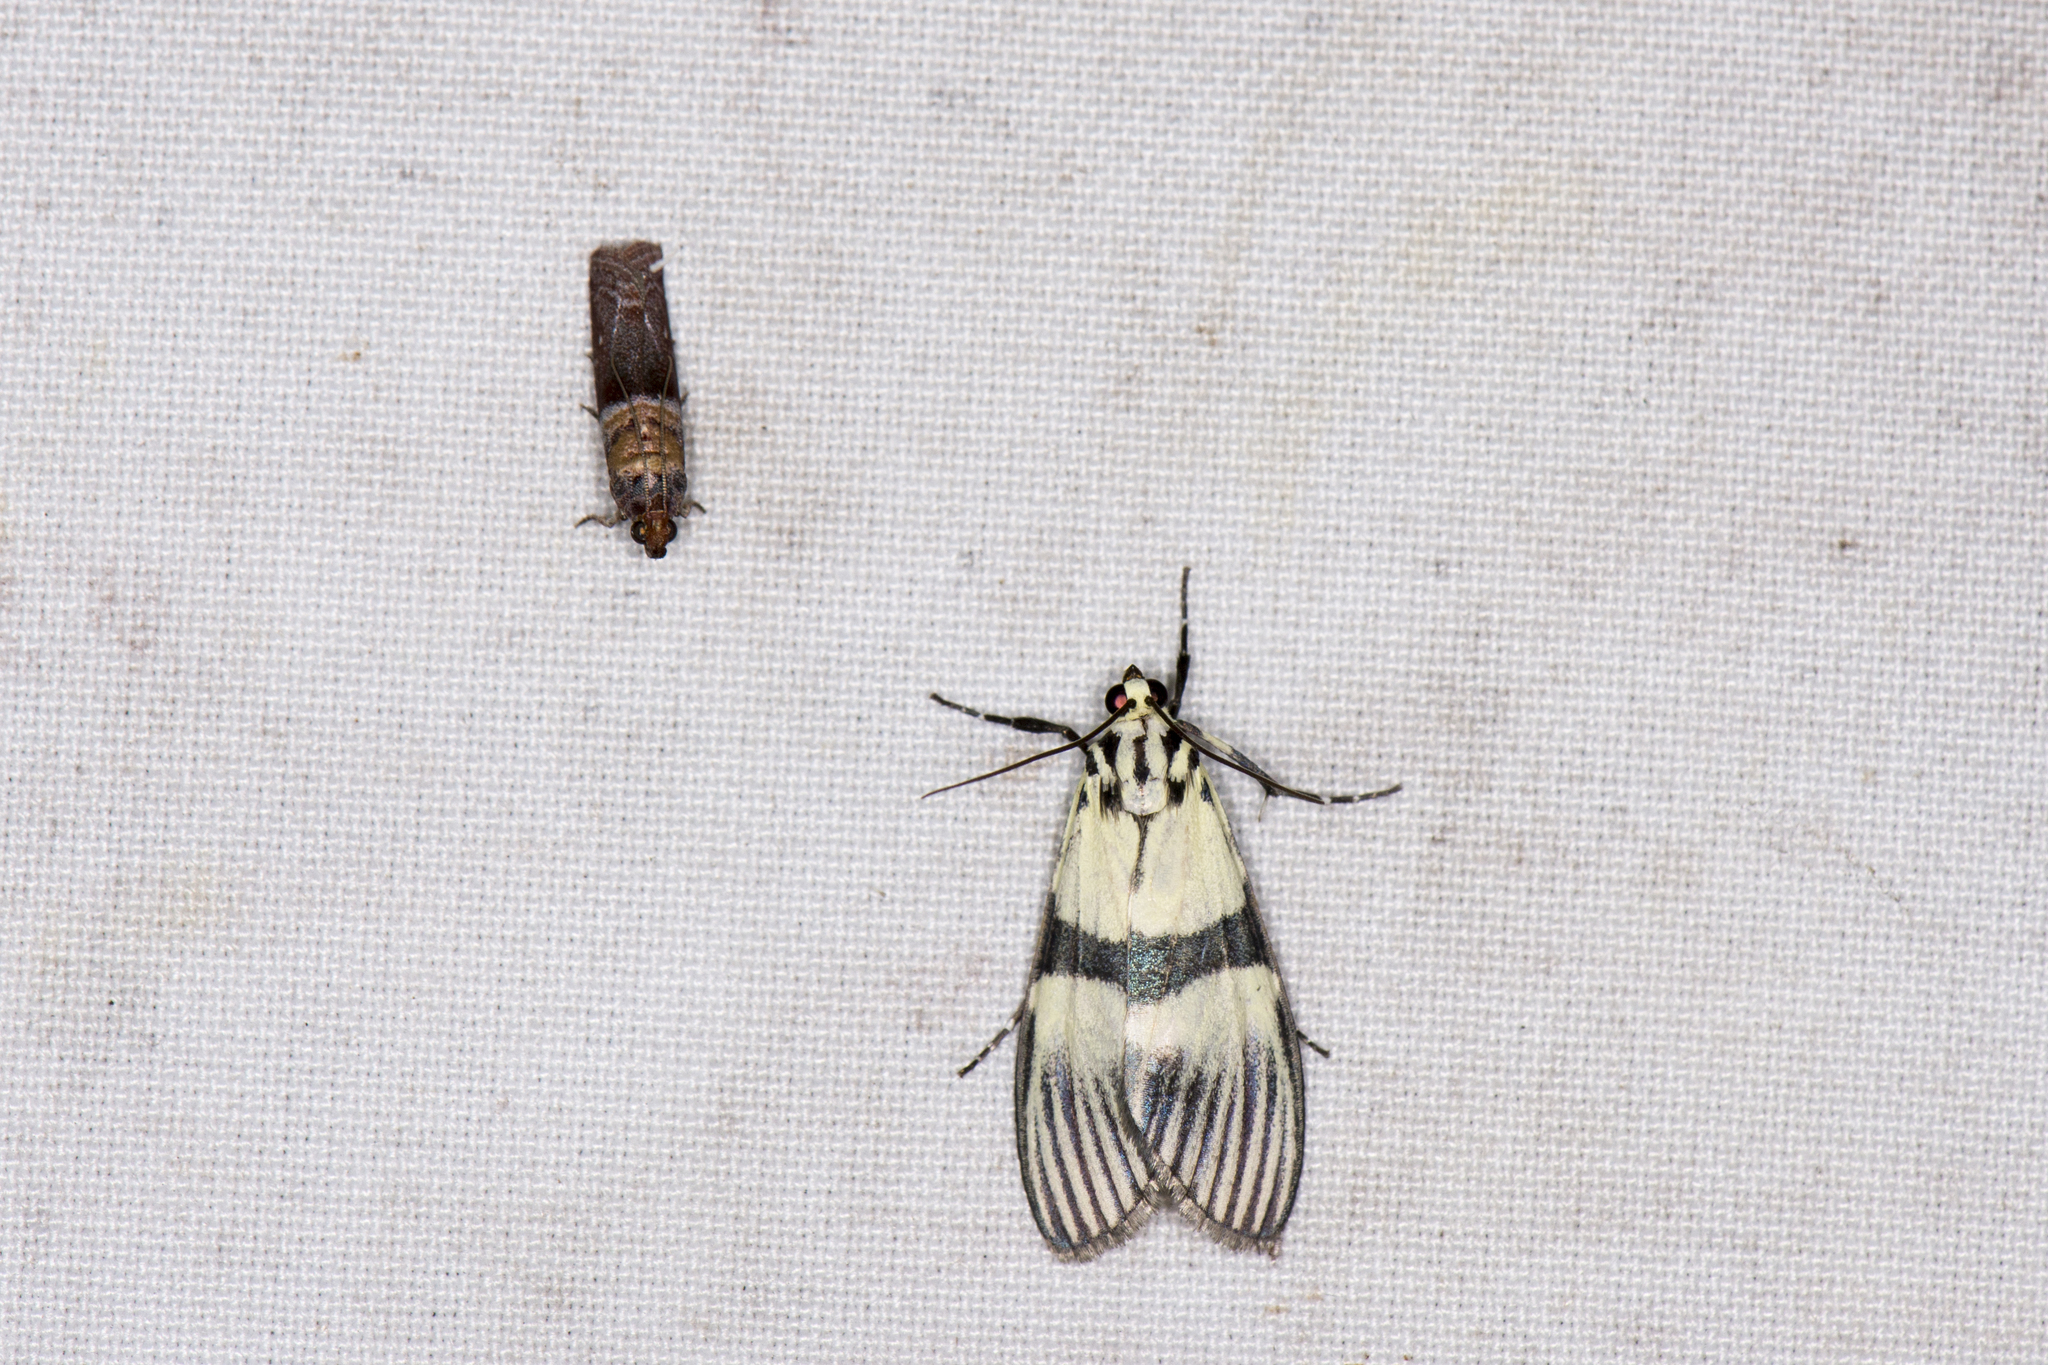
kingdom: Animalia
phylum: Arthropoda
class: Insecta
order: Lepidoptera
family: Crambidae
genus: Heortia
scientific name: Heortia vitessoides
